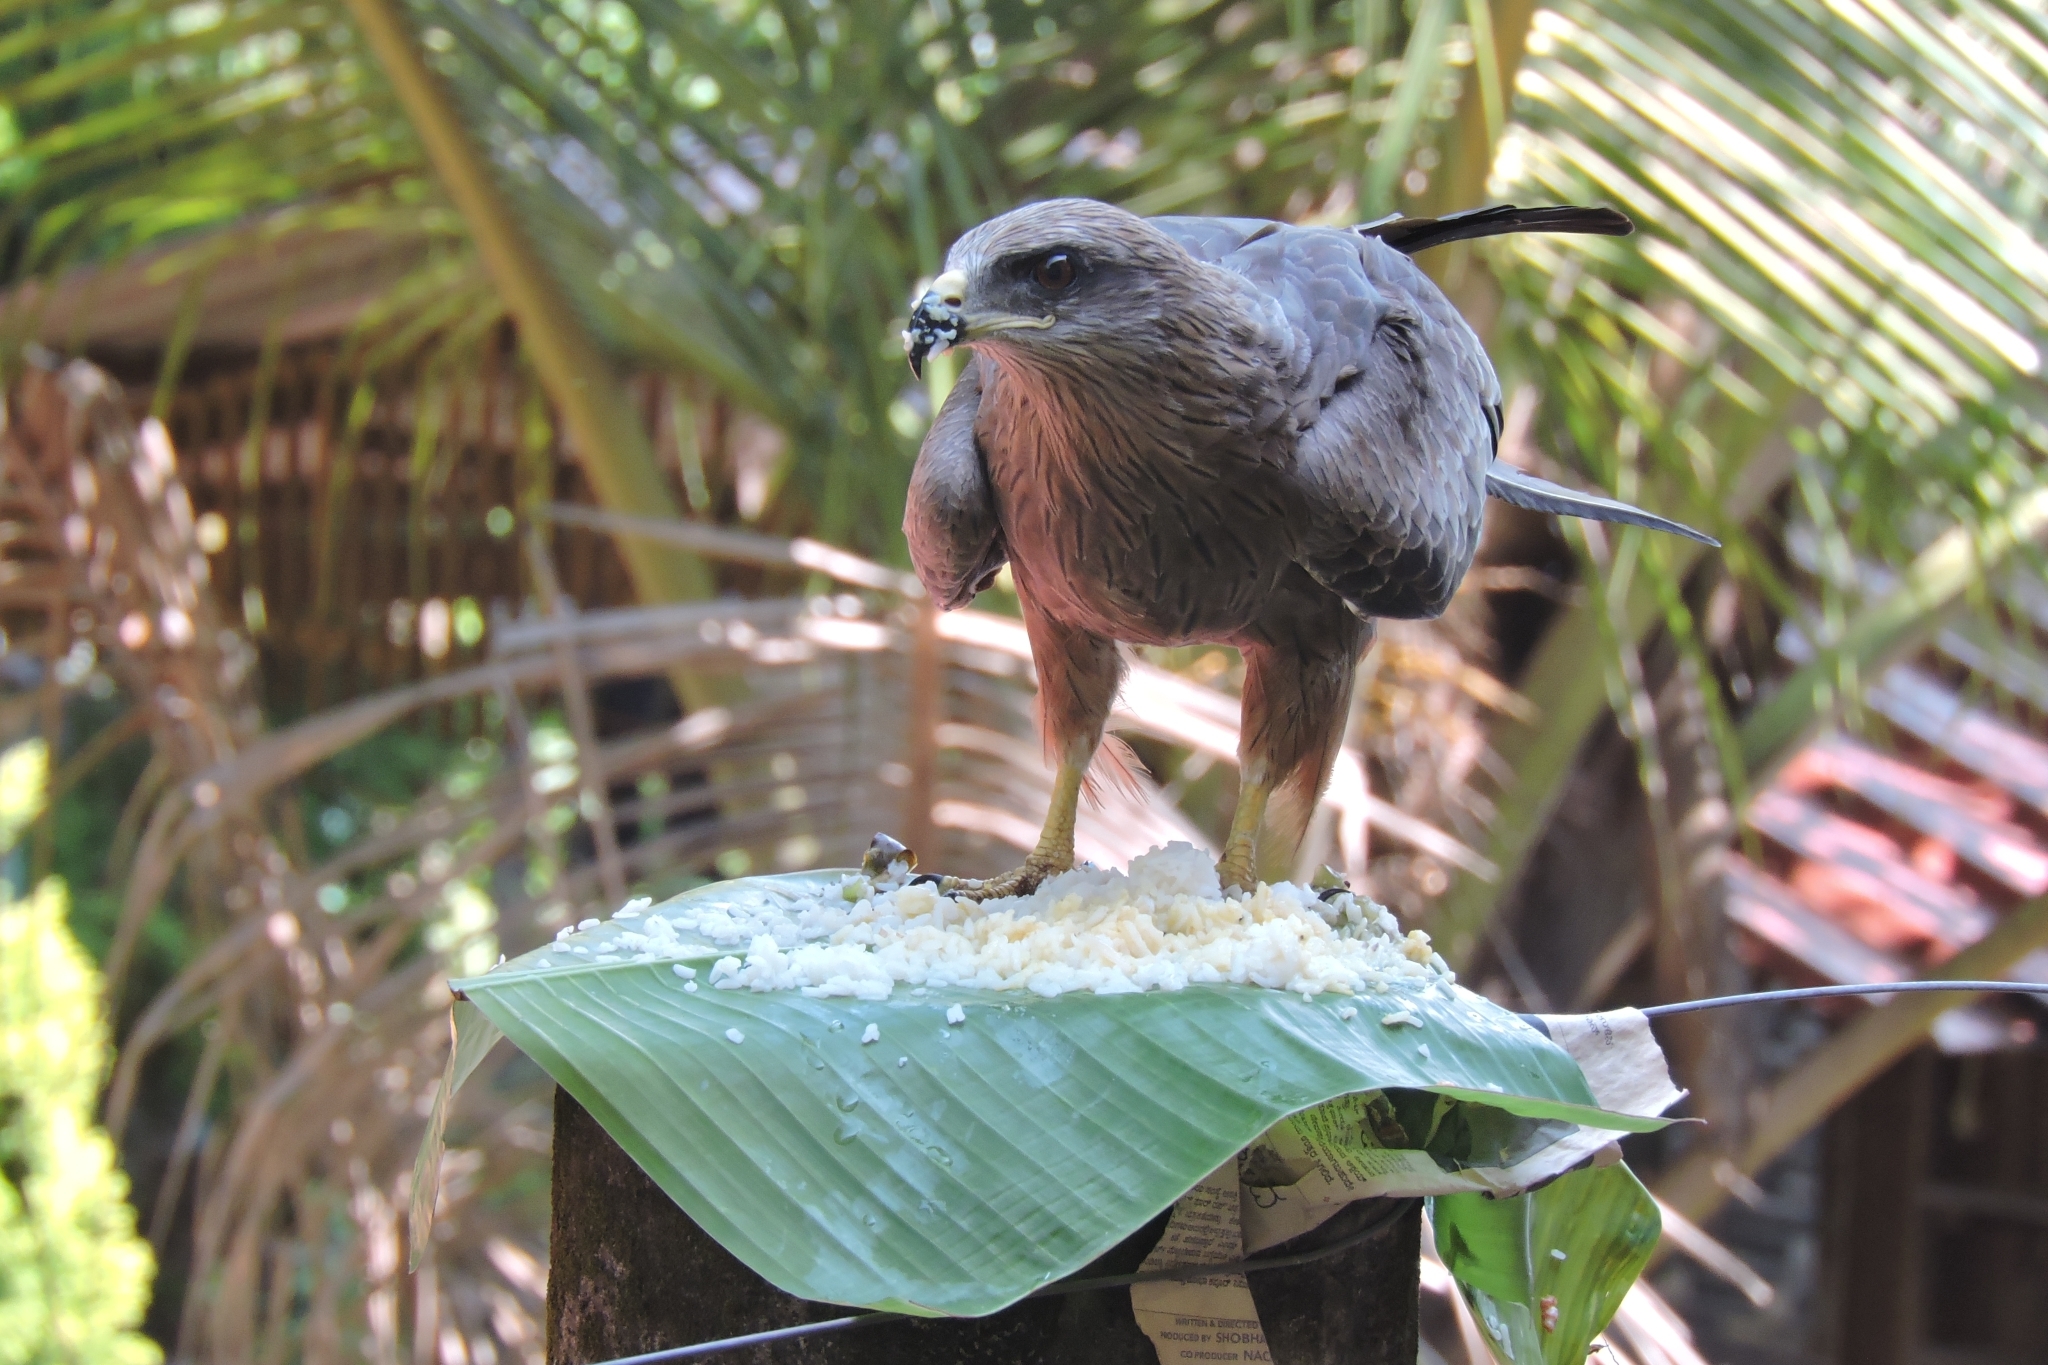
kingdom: Animalia
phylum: Chordata
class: Aves
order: Accipitriformes
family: Accipitridae
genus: Milvus
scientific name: Milvus migrans
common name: Black kite
